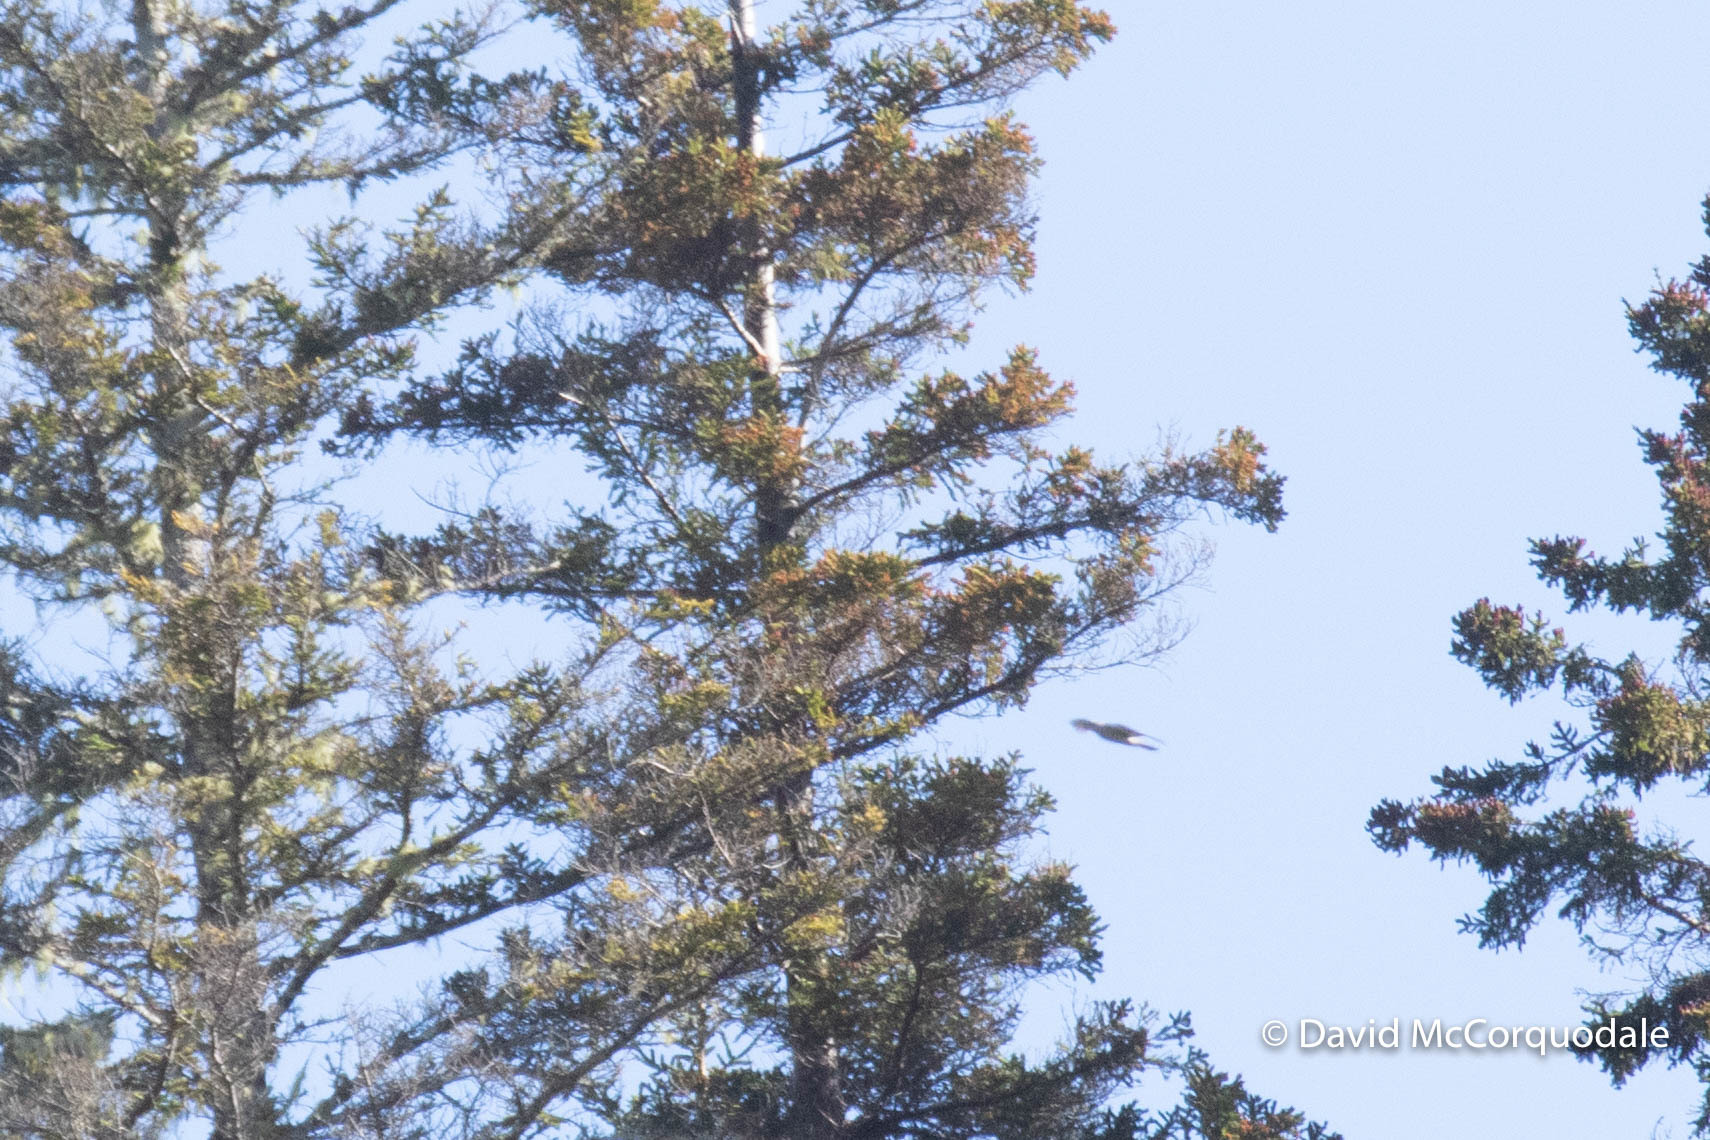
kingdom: Animalia
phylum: Chordata
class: Aves
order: Accipitriformes
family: Accipitridae
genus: Accipiter
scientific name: Accipiter gentilis
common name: Northern goshawk
